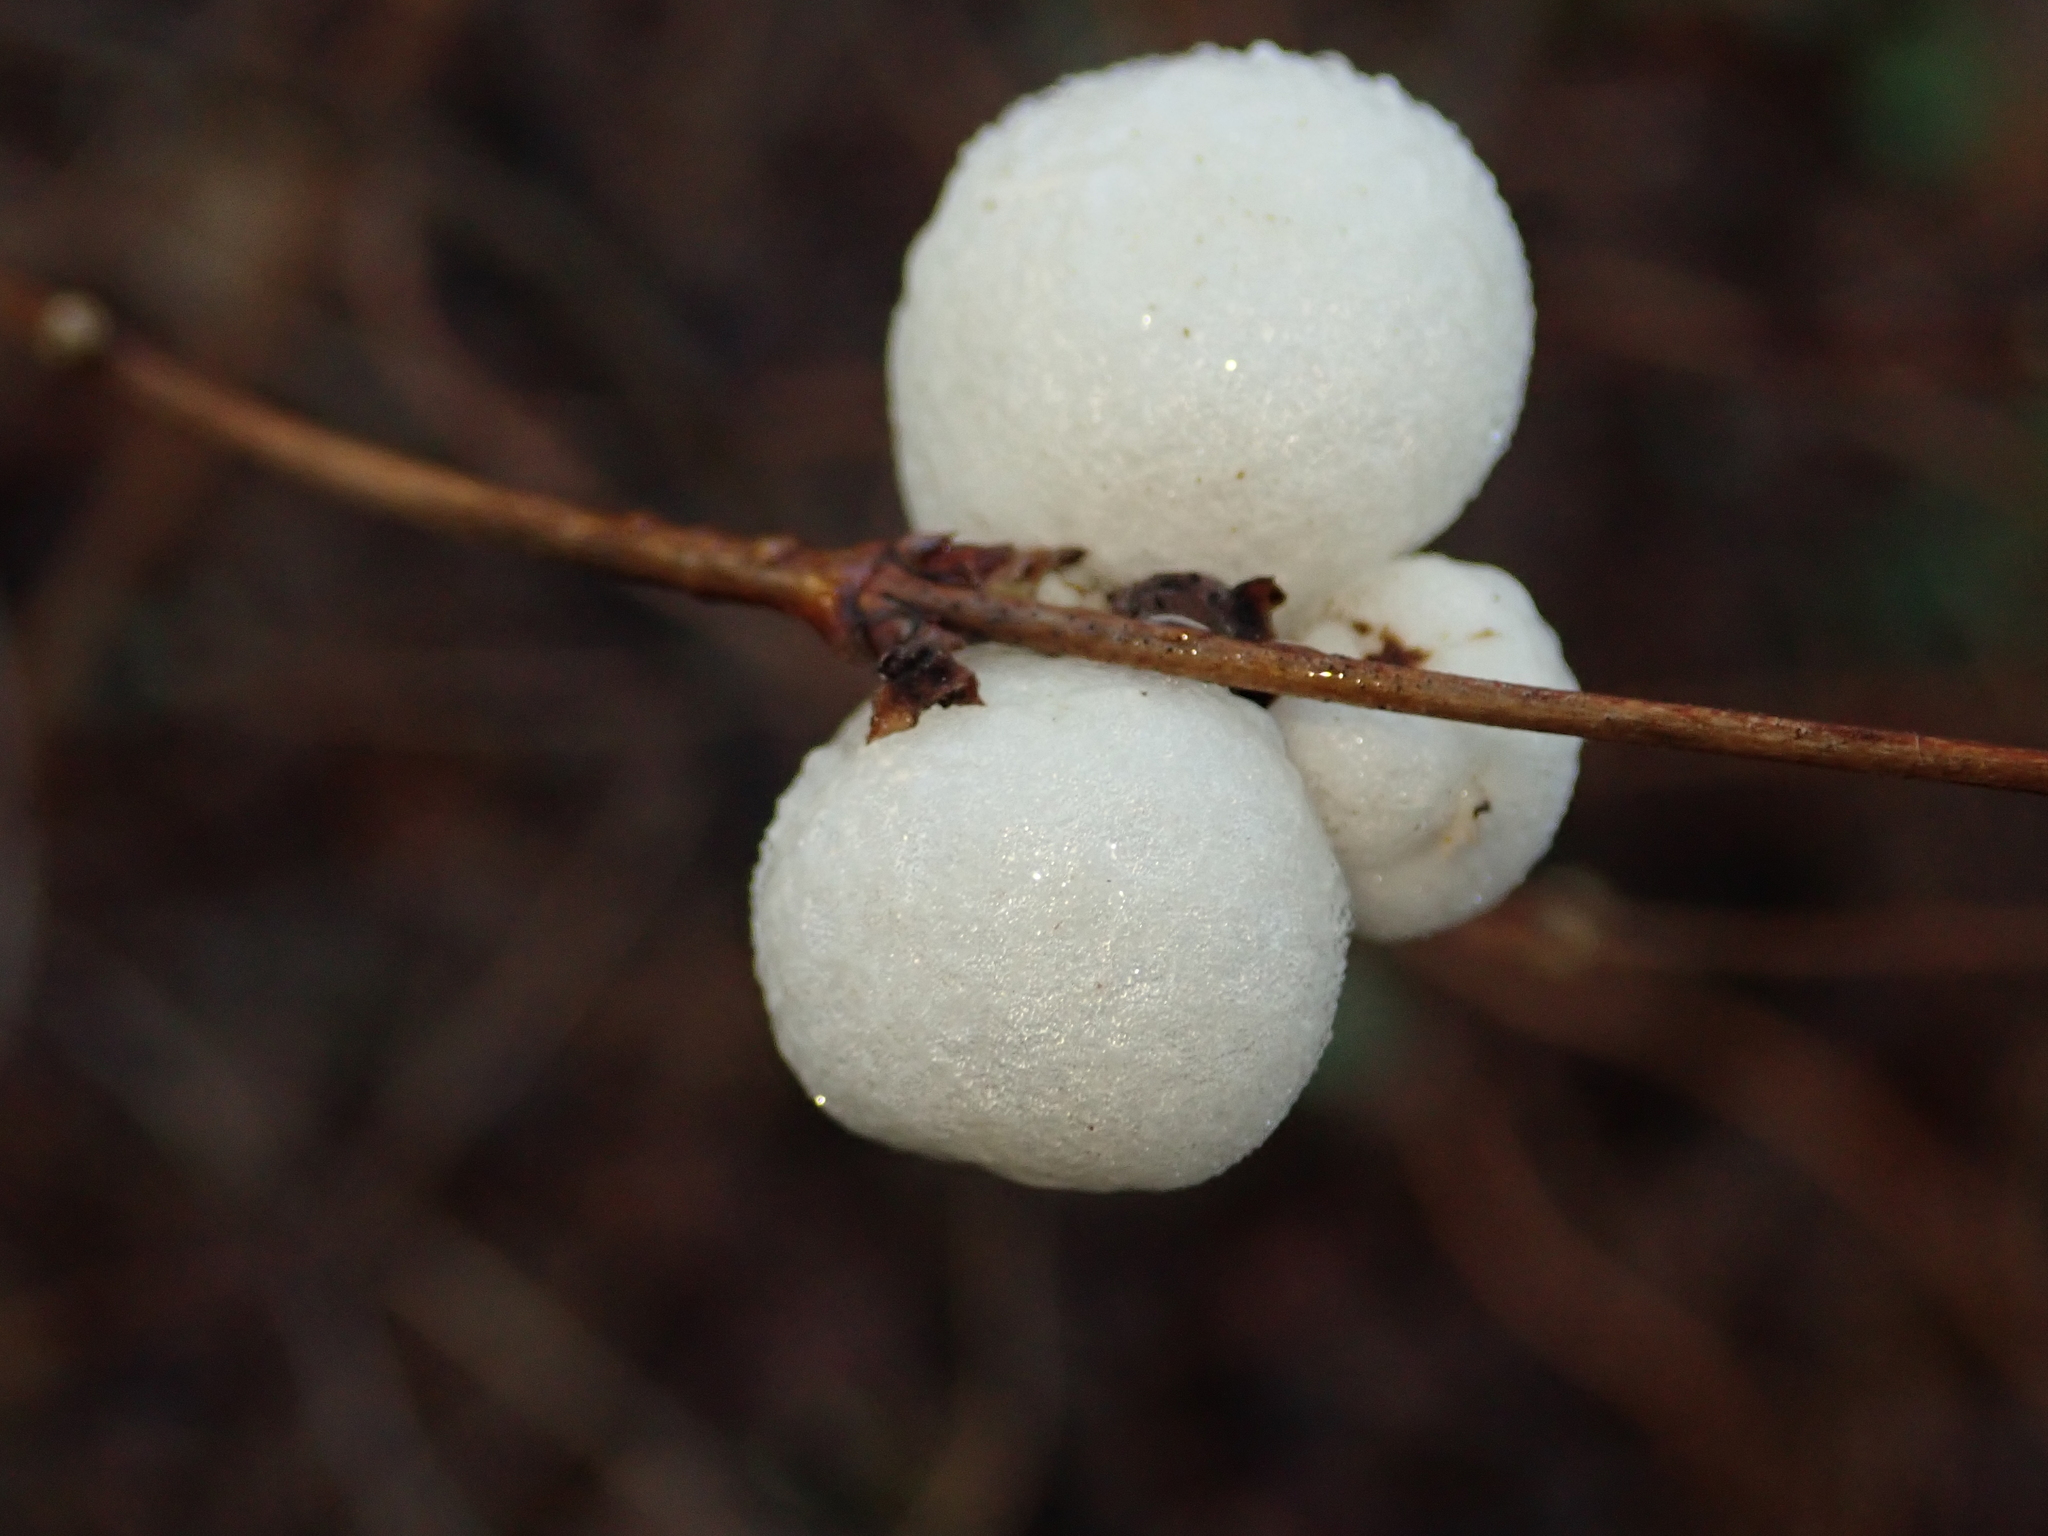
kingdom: Plantae
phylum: Tracheophyta
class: Magnoliopsida
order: Dipsacales
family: Caprifoliaceae
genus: Symphoricarpos
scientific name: Symphoricarpos albus
